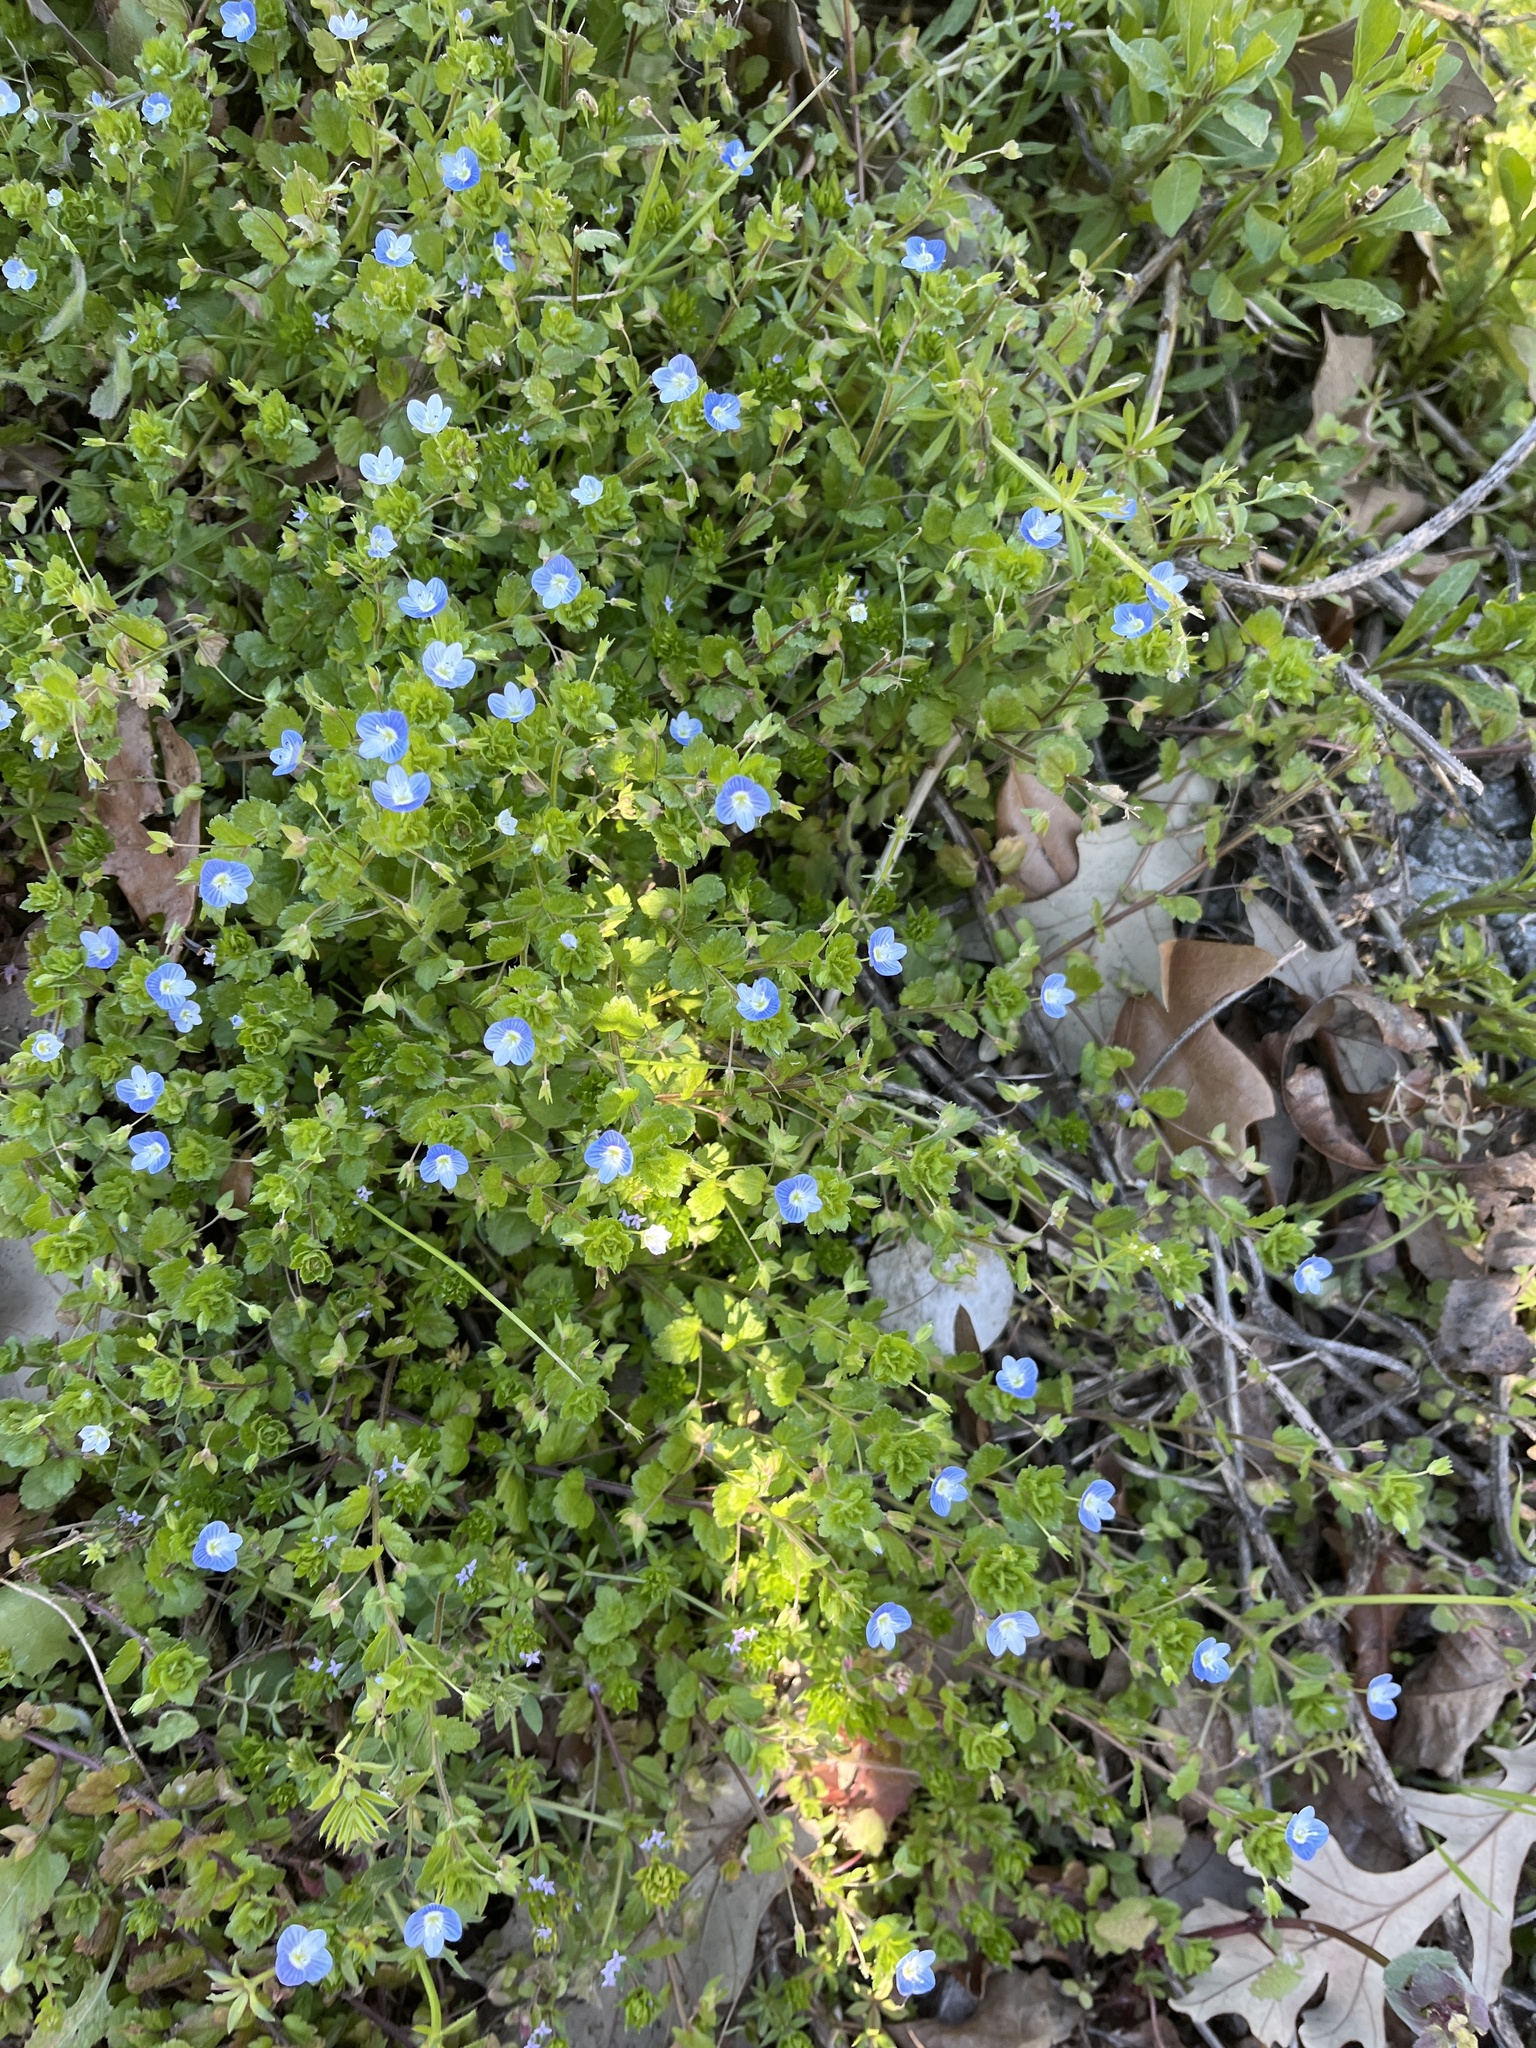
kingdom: Plantae
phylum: Tracheophyta
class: Magnoliopsida
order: Lamiales
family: Plantaginaceae
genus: Veronica
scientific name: Veronica persica
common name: Common field-speedwell
